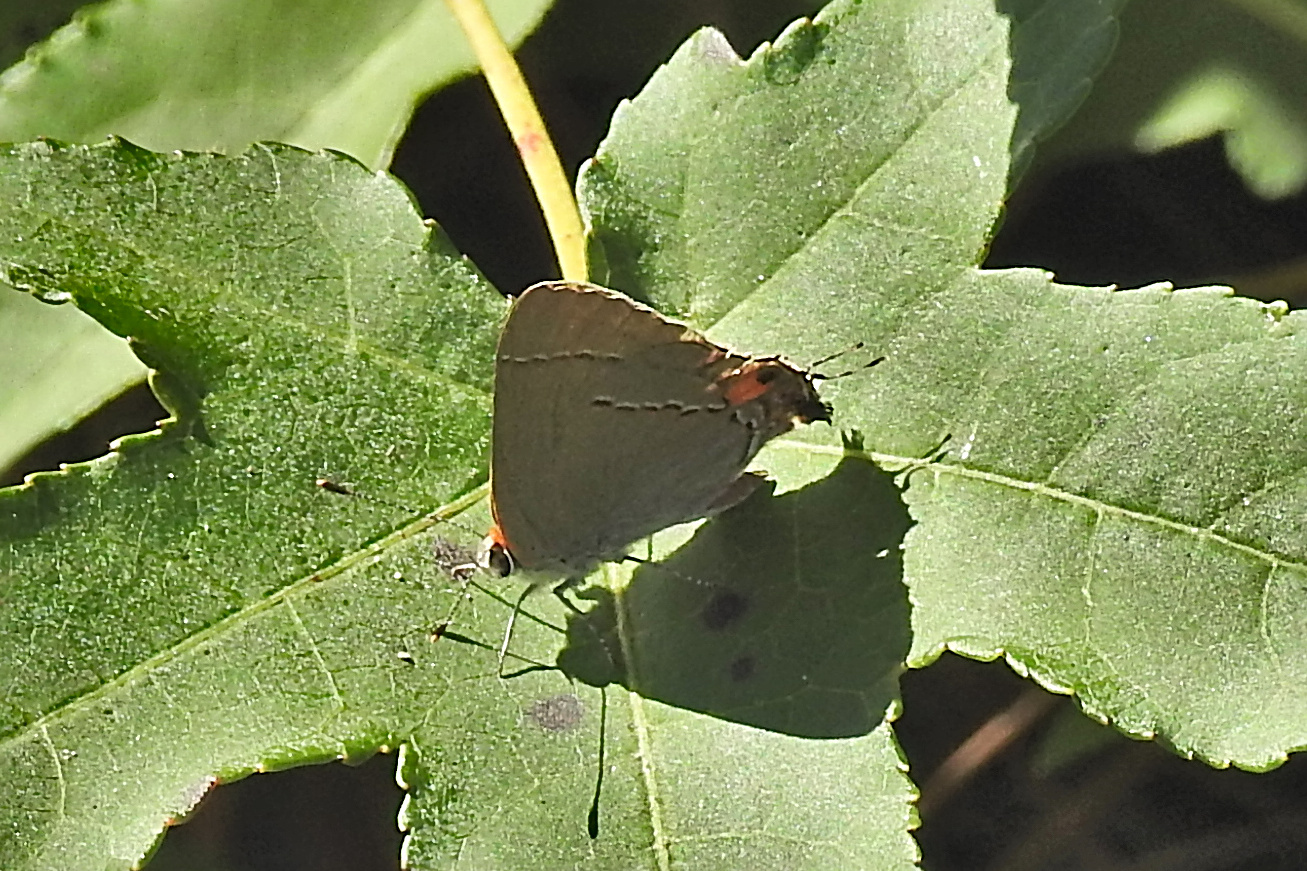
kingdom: Animalia
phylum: Arthropoda
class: Insecta
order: Lepidoptera
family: Lycaenidae
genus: Strymon
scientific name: Strymon melinus
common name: Gray hairstreak
